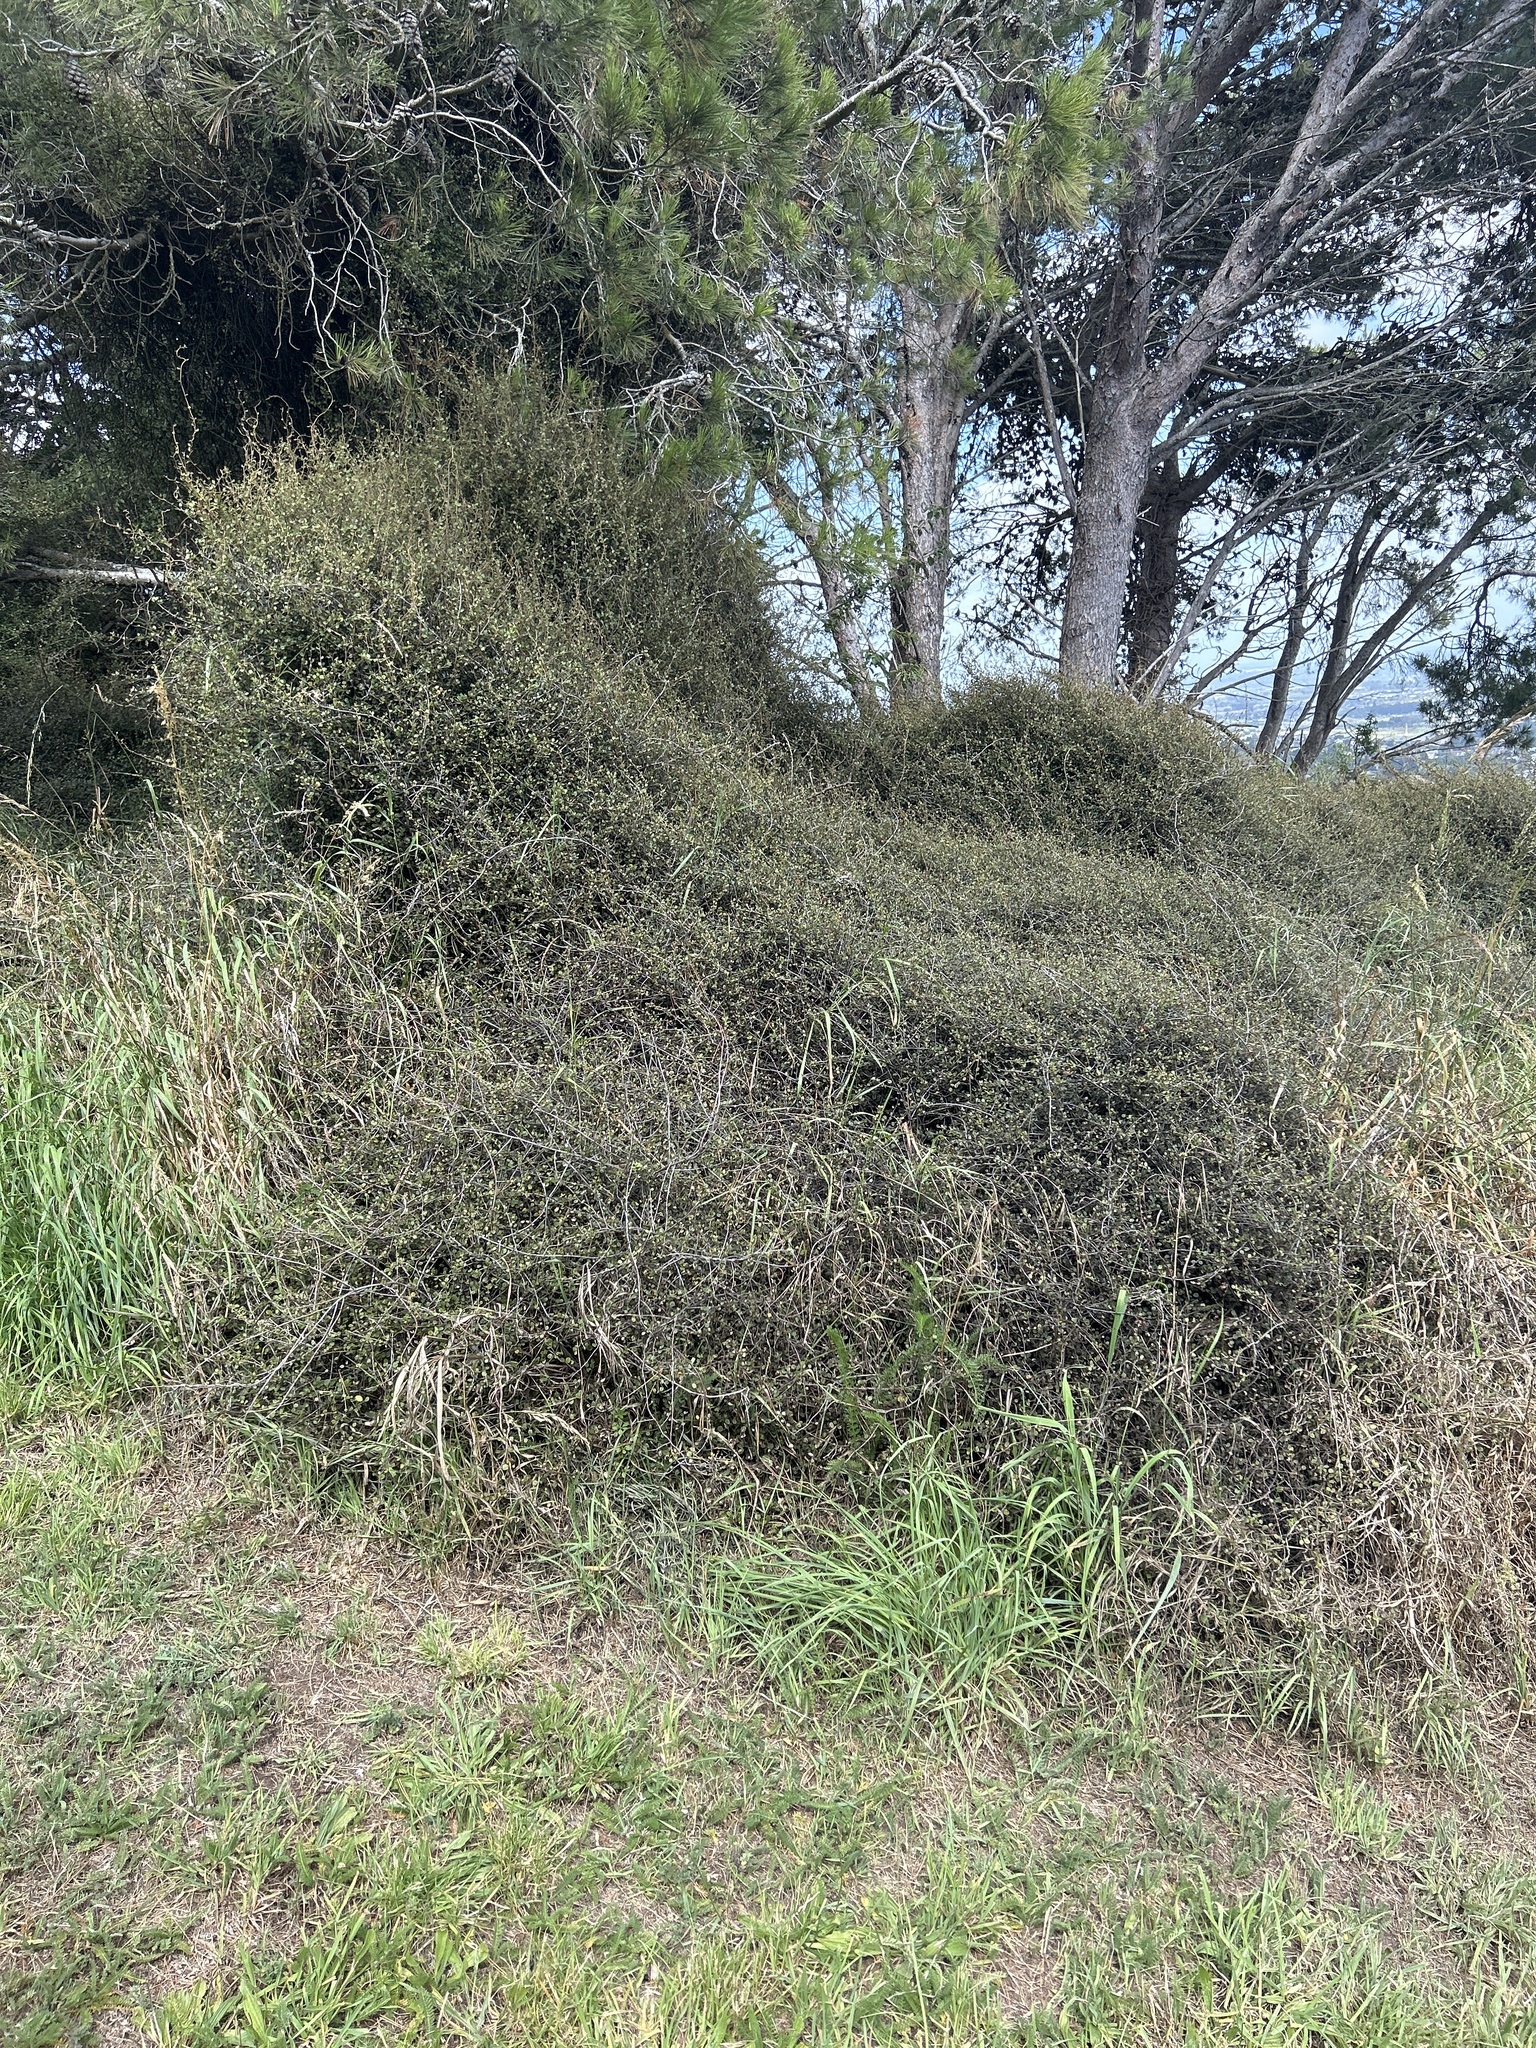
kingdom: Plantae
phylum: Tracheophyta
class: Magnoliopsida
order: Caryophyllales
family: Polygonaceae
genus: Muehlenbeckia
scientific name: Muehlenbeckia complexa
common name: Wireplant
